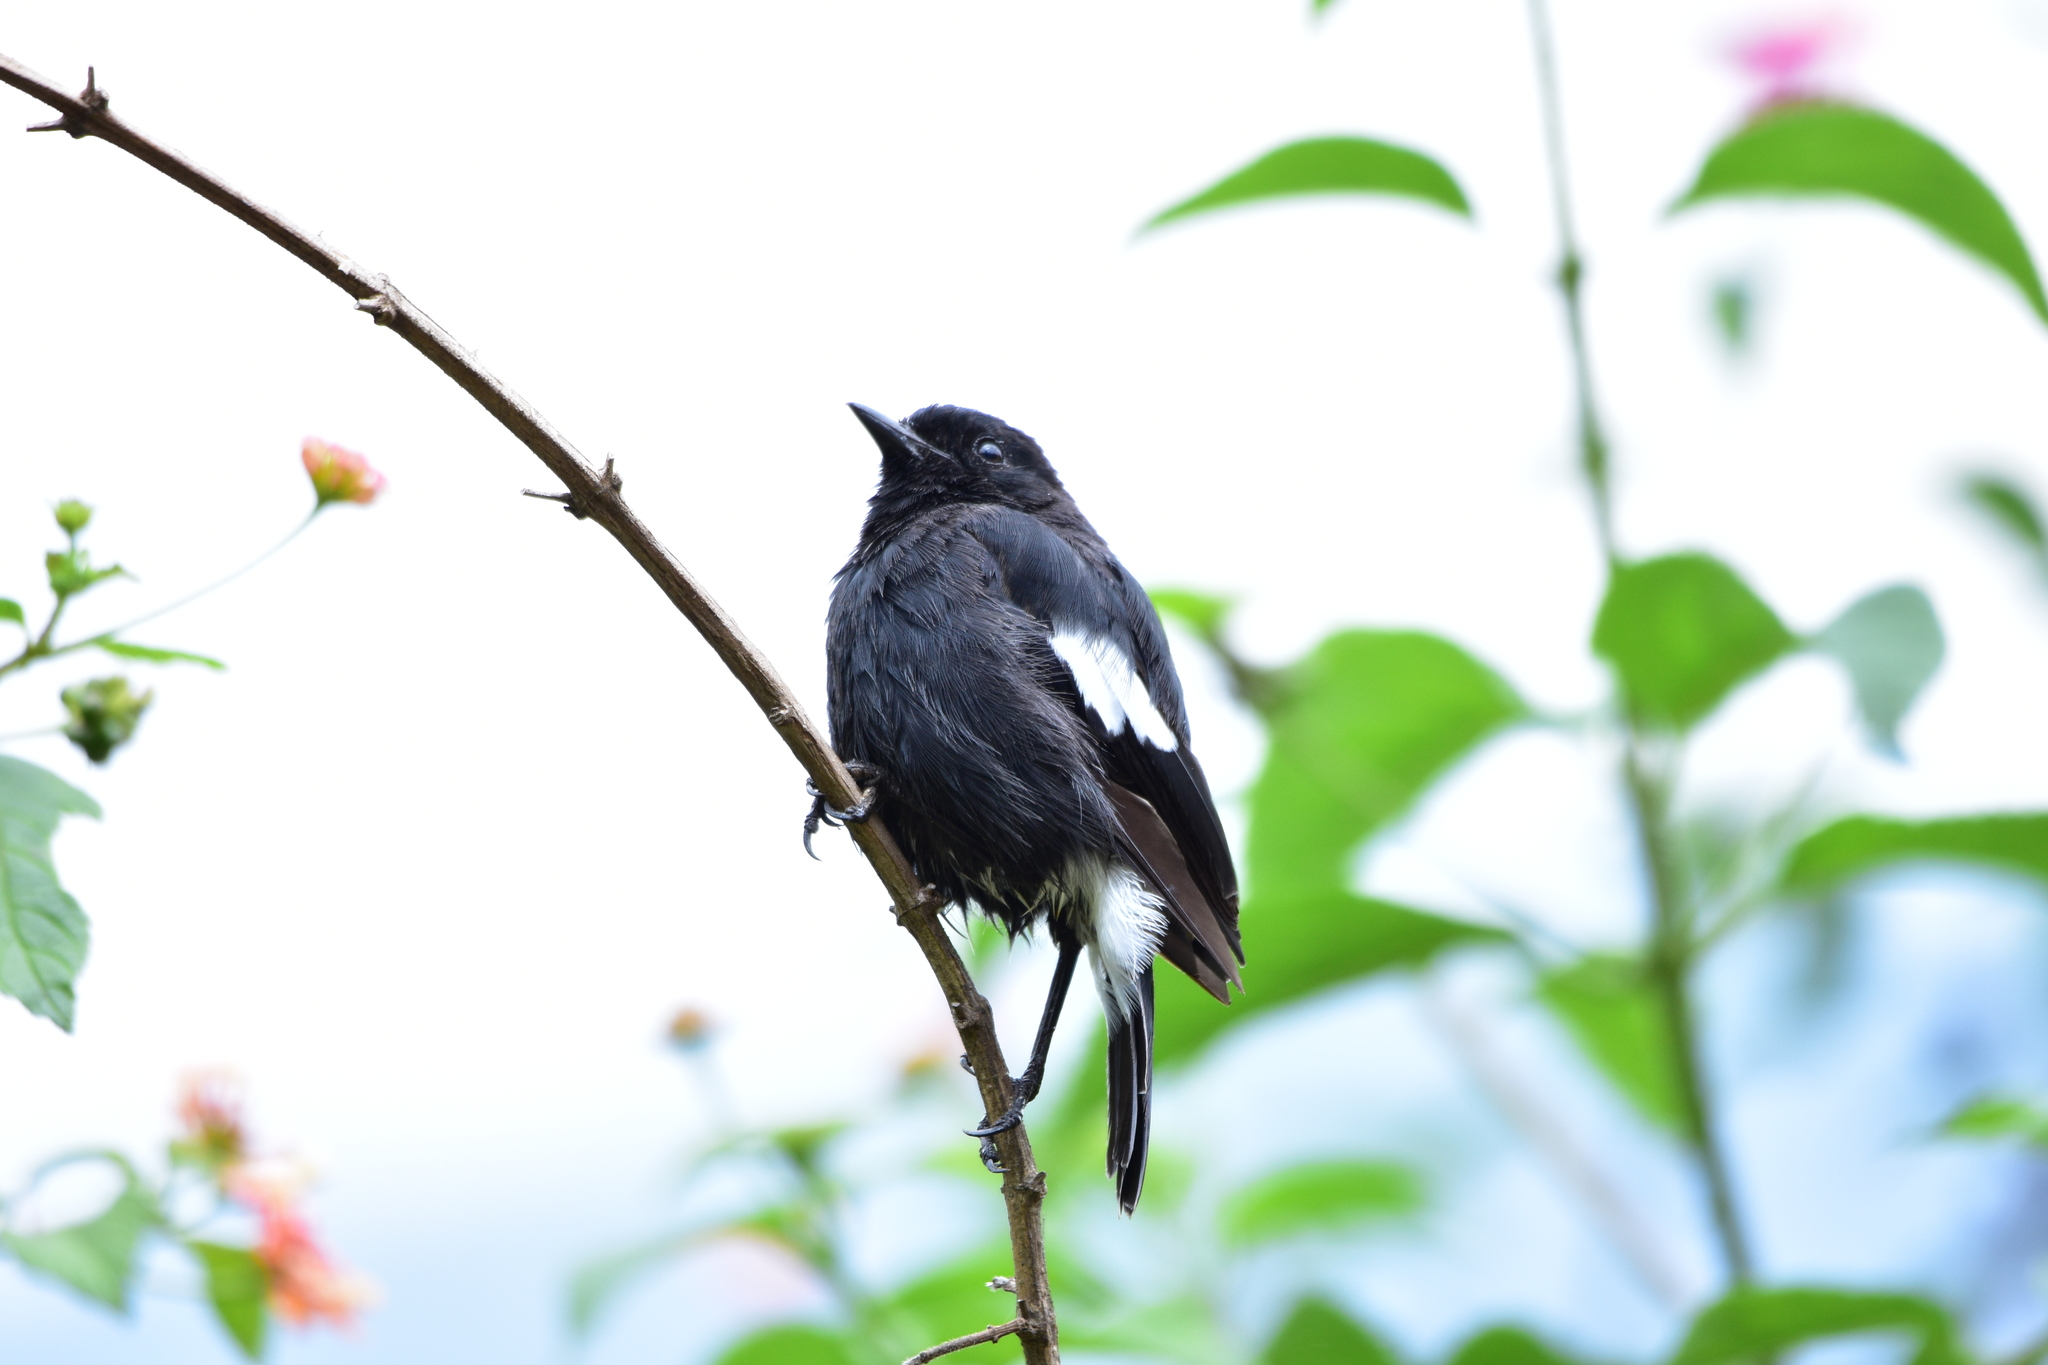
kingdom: Animalia
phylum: Chordata
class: Aves
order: Passeriformes
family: Muscicapidae
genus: Saxicola
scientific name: Saxicola caprata
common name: Pied bush chat
